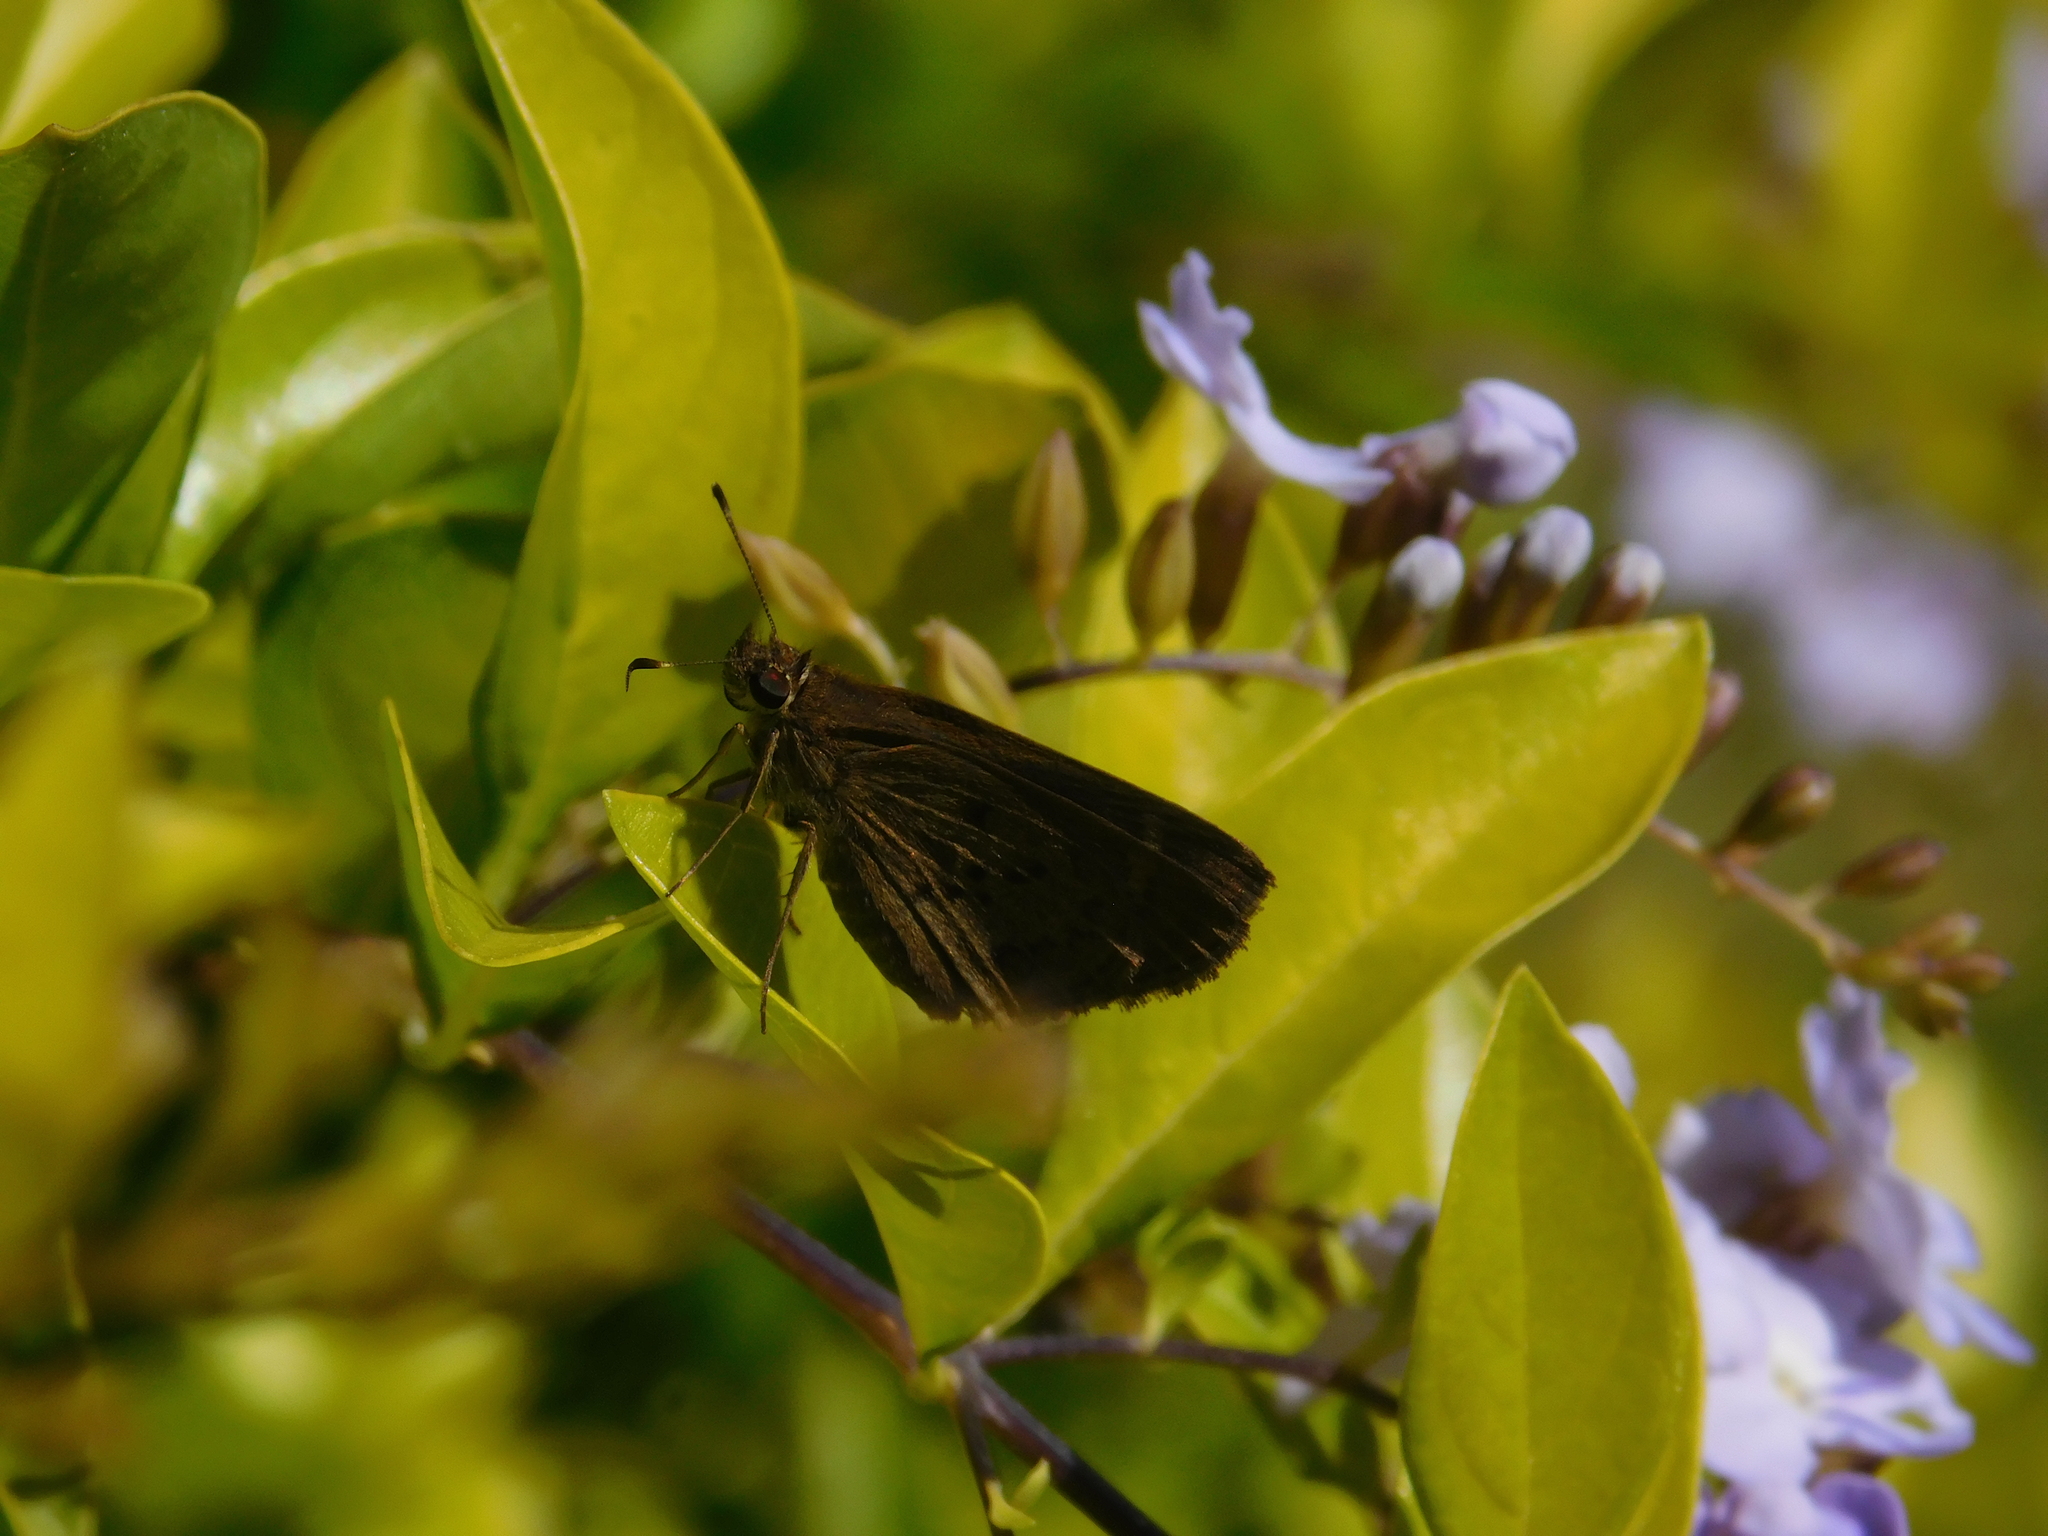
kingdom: Animalia
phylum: Arthropoda
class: Insecta
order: Lepidoptera
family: Hesperiidae
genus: Cymaenes
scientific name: Cymaenes gisca
